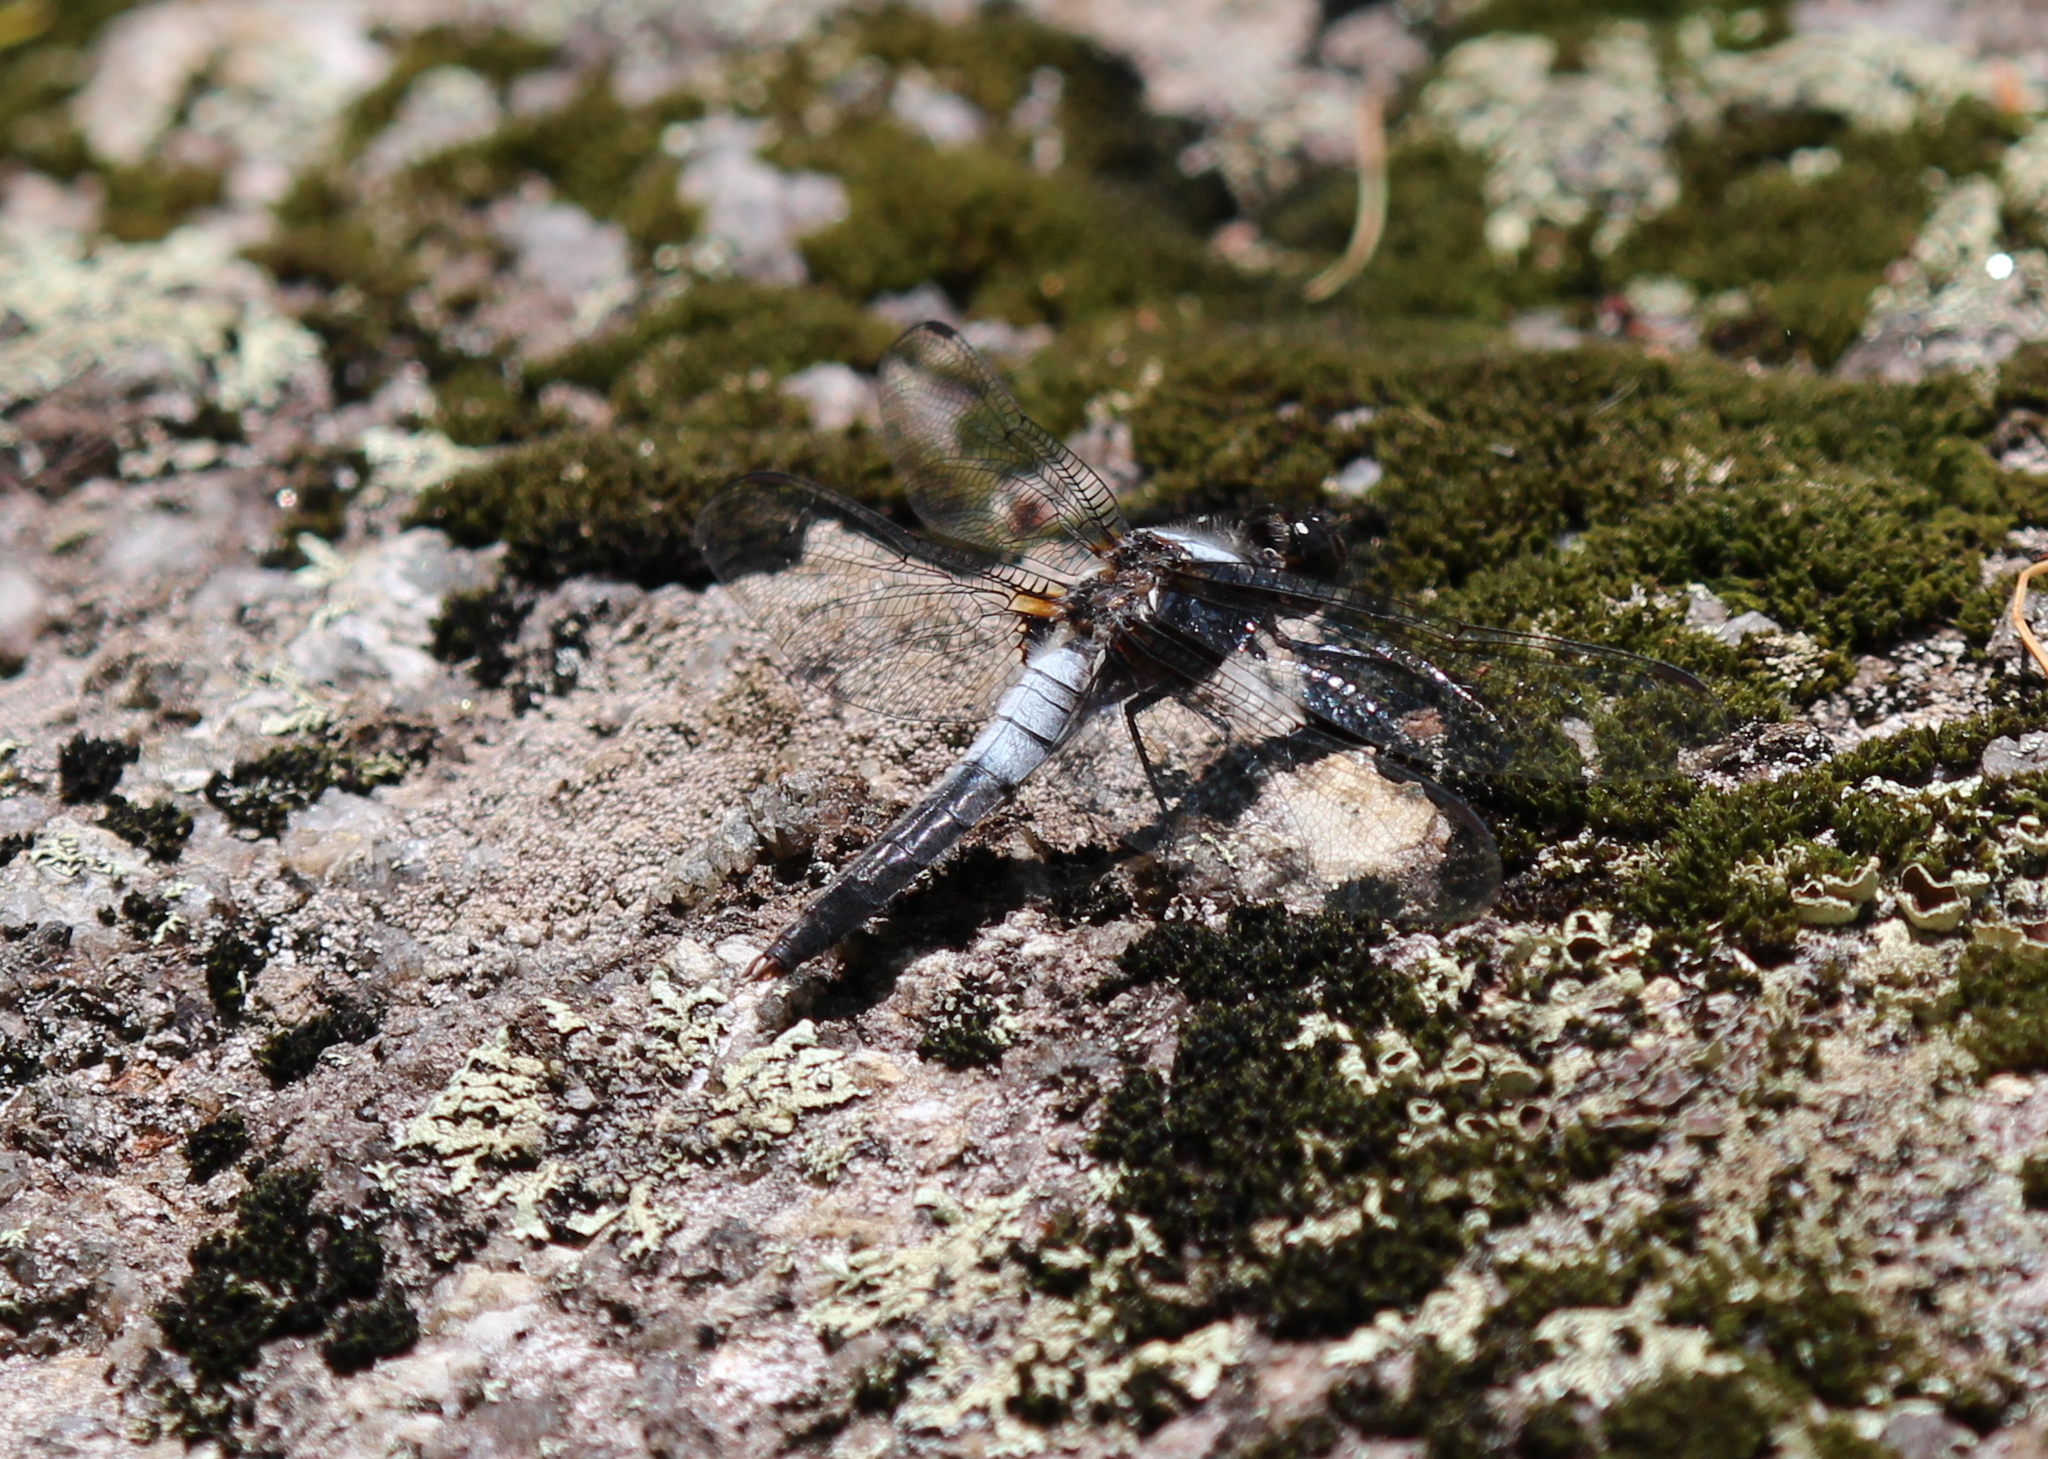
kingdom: Animalia
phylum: Arthropoda
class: Insecta
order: Odonata
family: Libellulidae
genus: Ladona
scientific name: Ladona julia
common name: Chalk-fronted corporal
